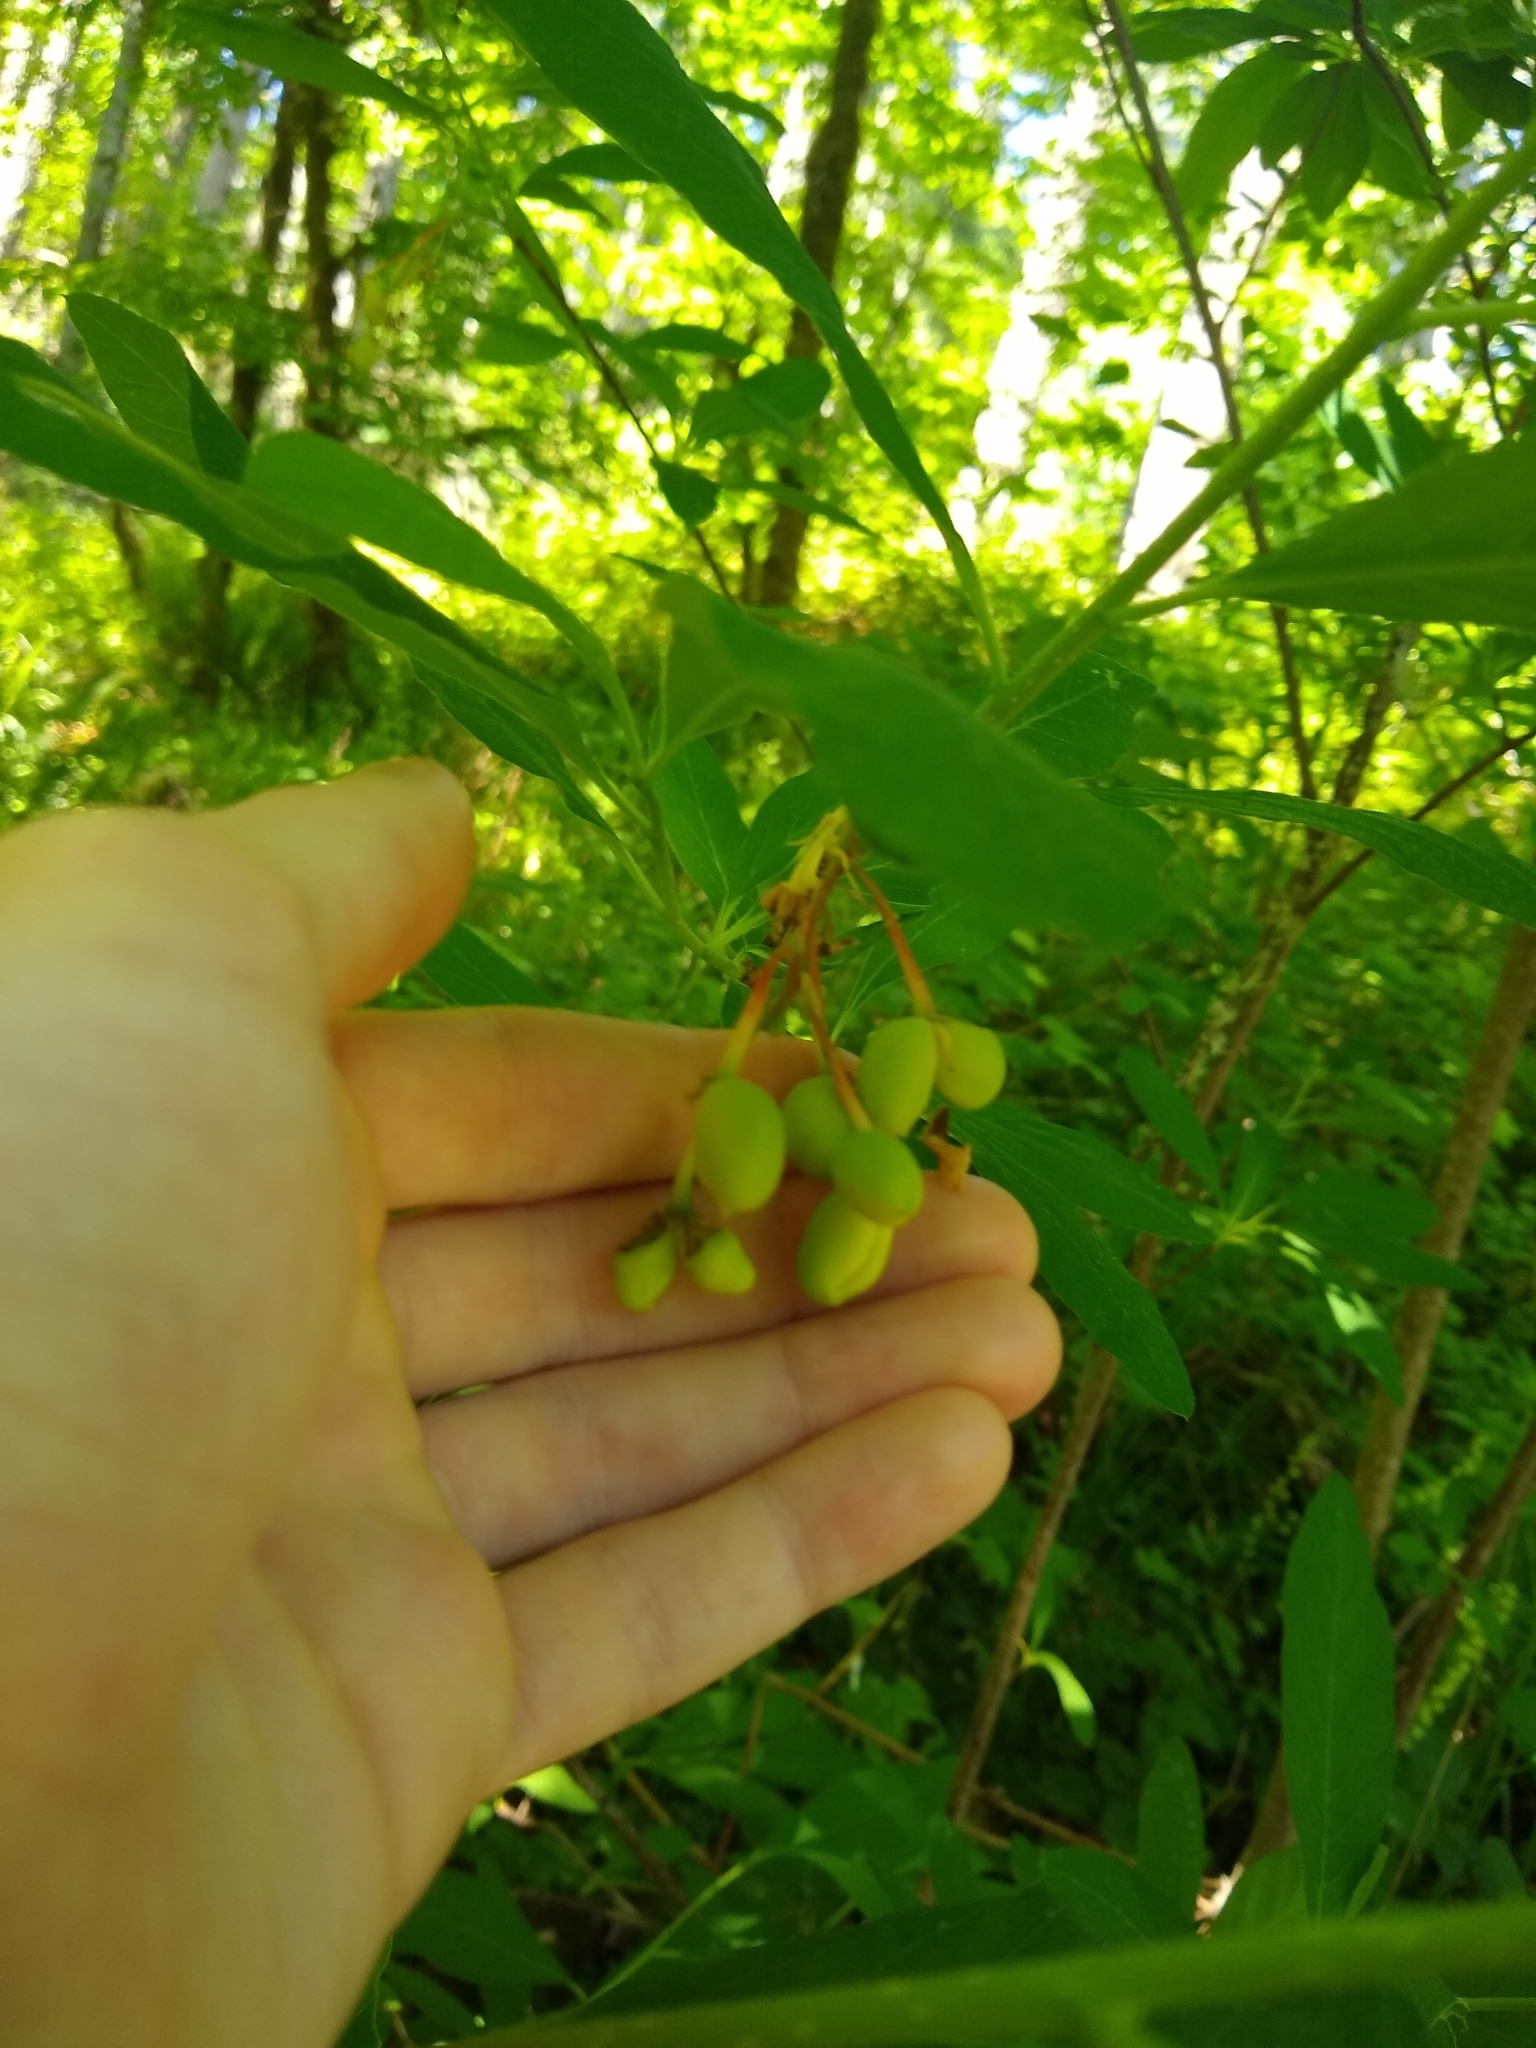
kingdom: Plantae
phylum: Tracheophyta
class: Magnoliopsida
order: Rosales
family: Rosaceae
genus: Oemleria
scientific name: Oemleria cerasiformis
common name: Osoberry
